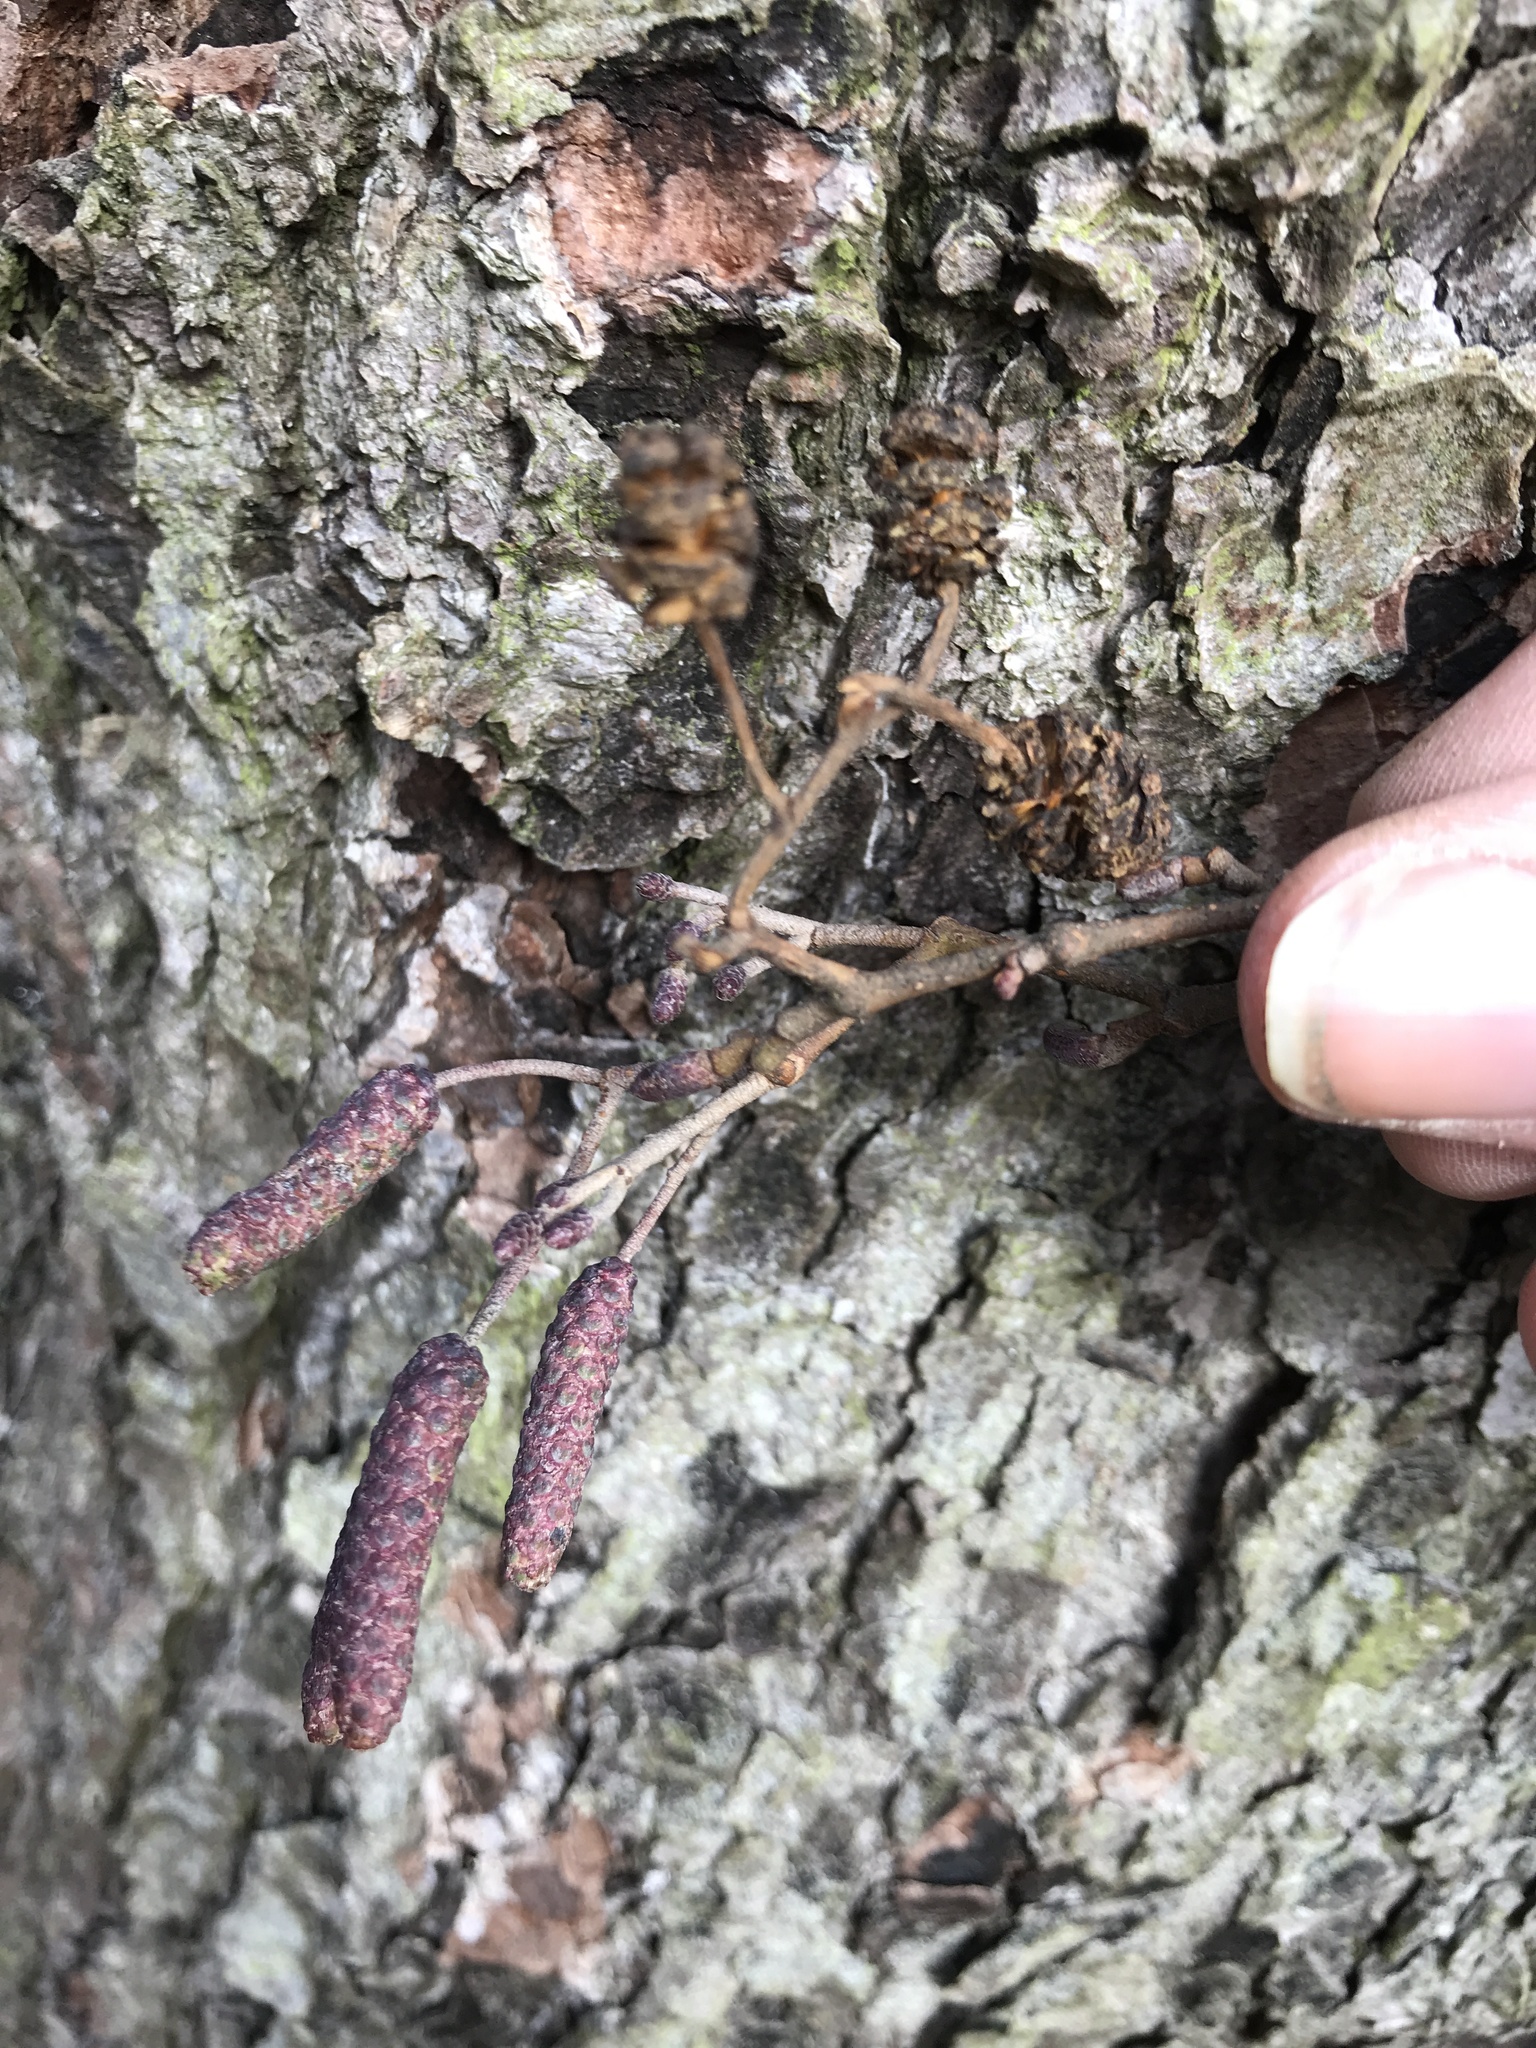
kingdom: Plantae
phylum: Tracheophyta
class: Magnoliopsida
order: Fagales
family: Betulaceae
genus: Alnus
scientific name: Alnus glutinosa
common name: Black alder
